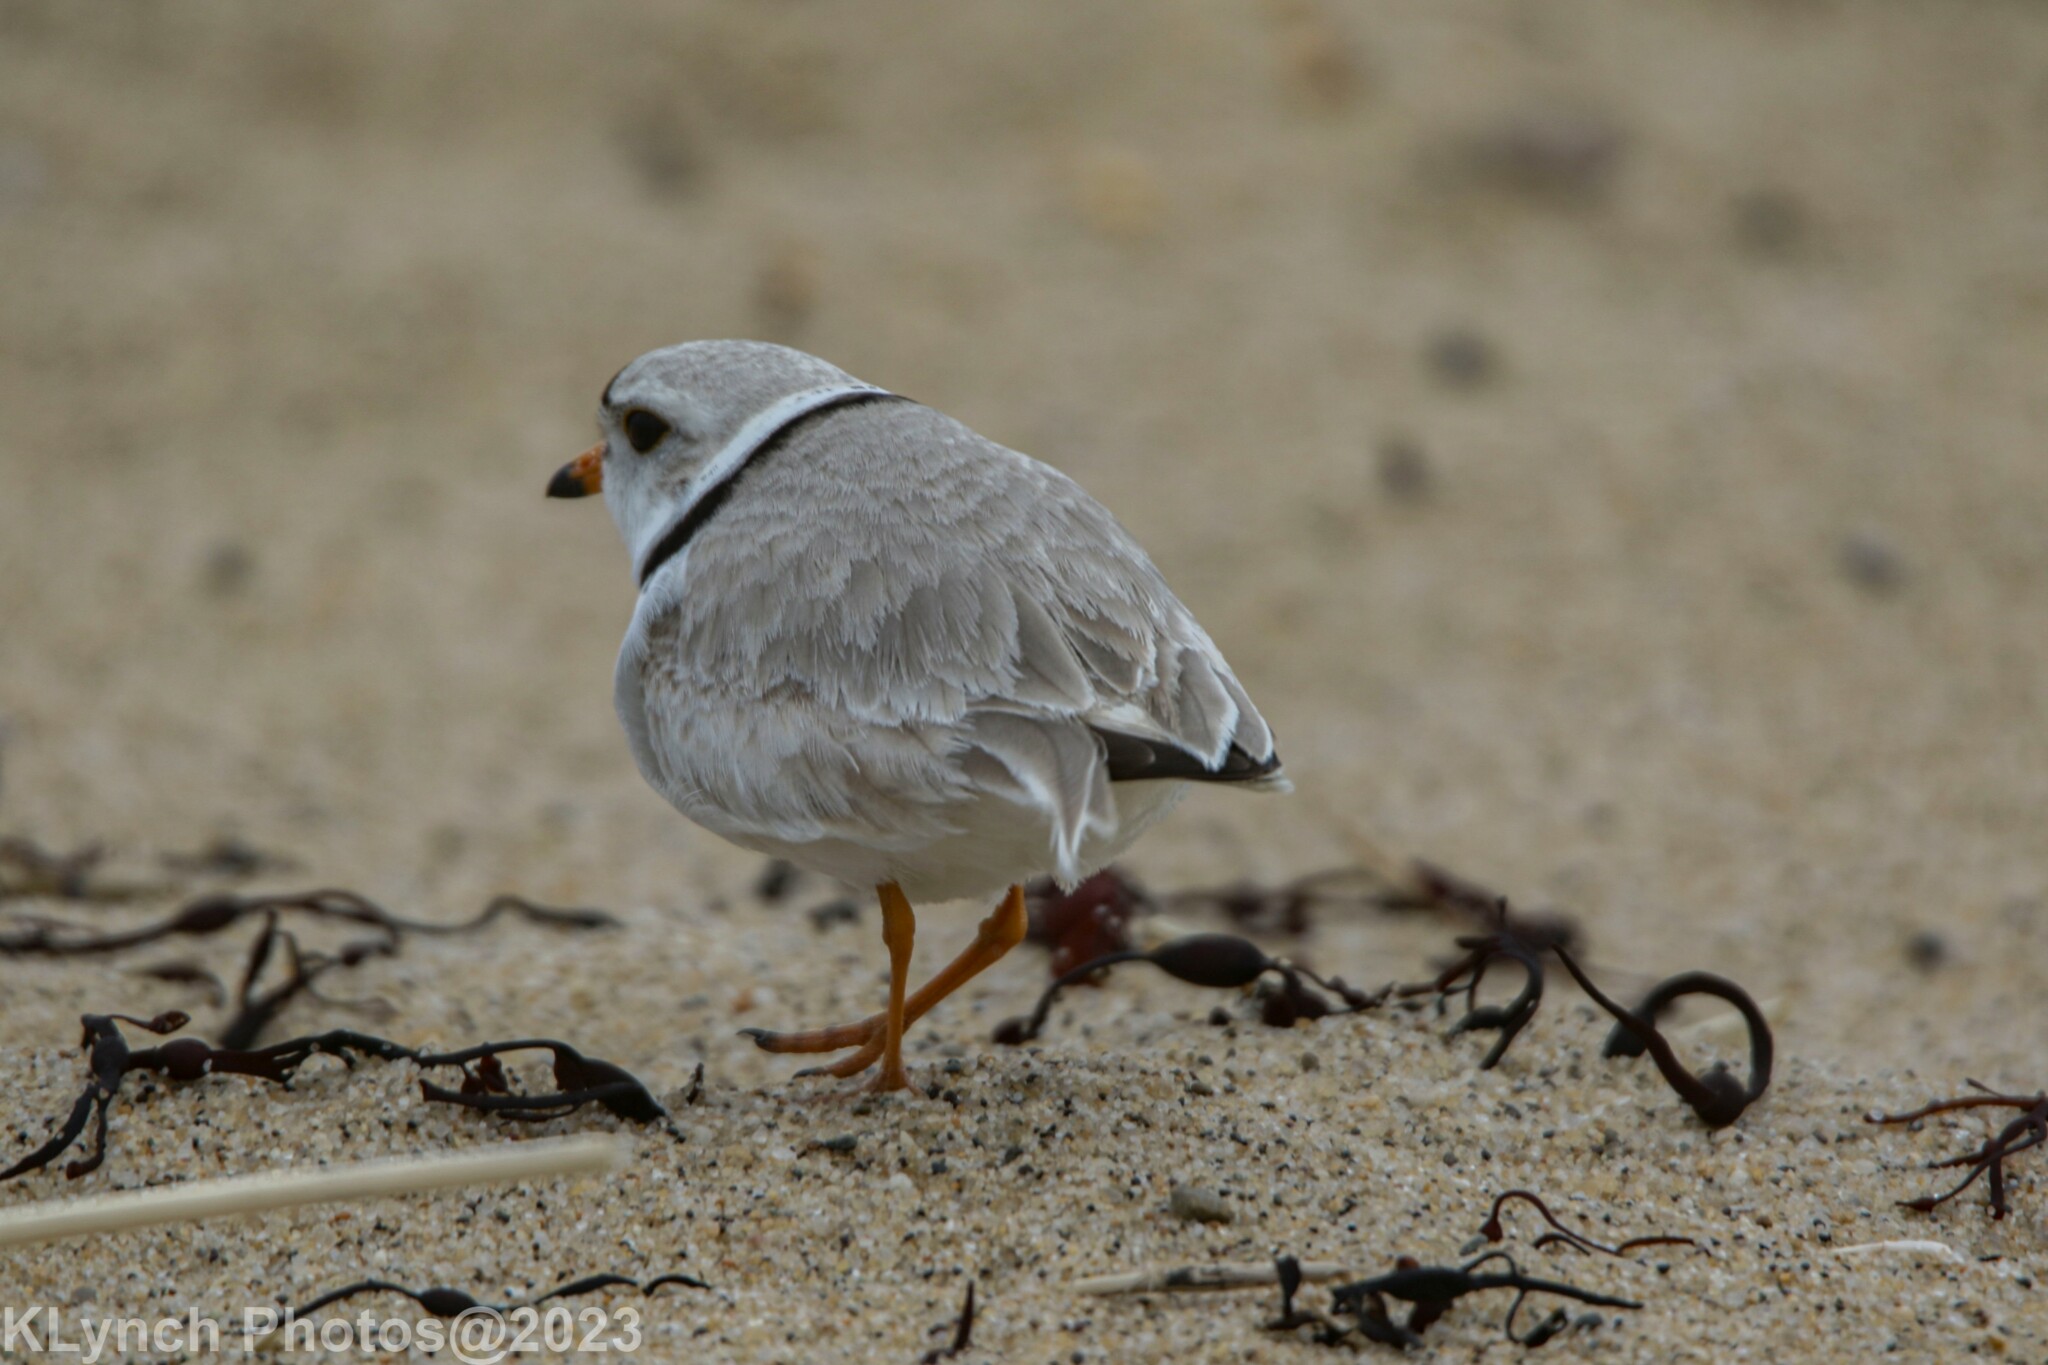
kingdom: Animalia
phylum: Chordata
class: Aves
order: Charadriiformes
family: Charadriidae
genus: Charadrius
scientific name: Charadrius melodus
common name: Piping plover
